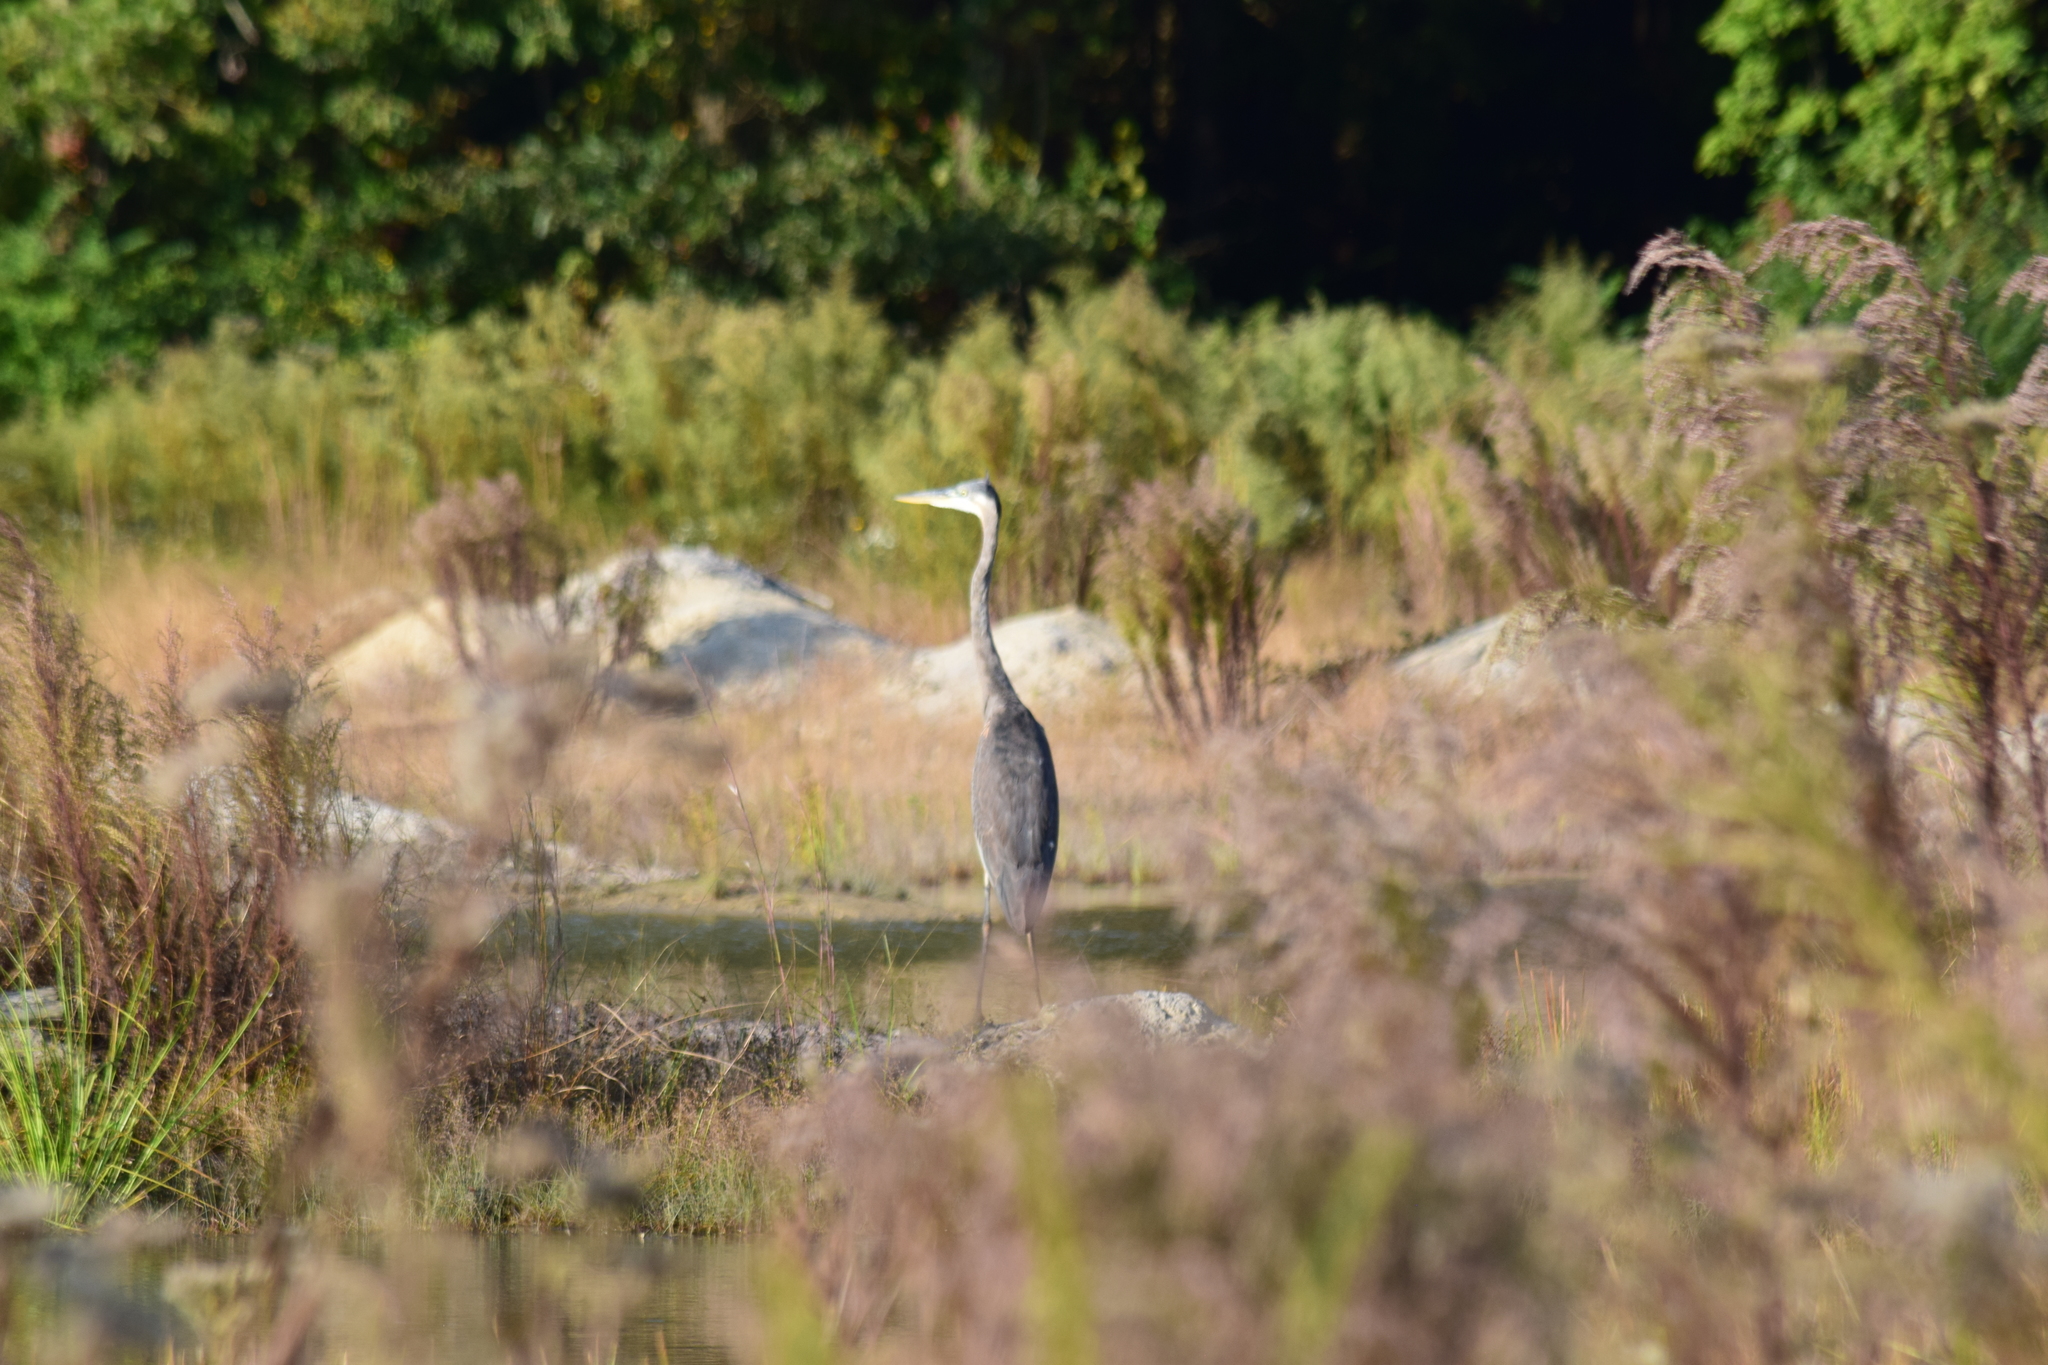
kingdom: Animalia
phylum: Chordata
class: Aves
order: Pelecaniformes
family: Ardeidae
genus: Ardea
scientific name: Ardea herodias
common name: Great blue heron
